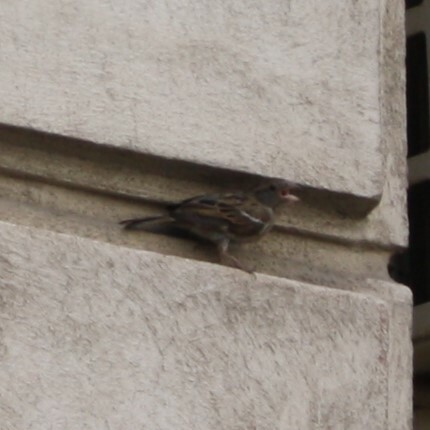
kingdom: Animalia
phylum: Chordata
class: Aves
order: Passeriformes
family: Passeridae
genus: Passer
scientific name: Passer domesticus
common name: House sparrow
